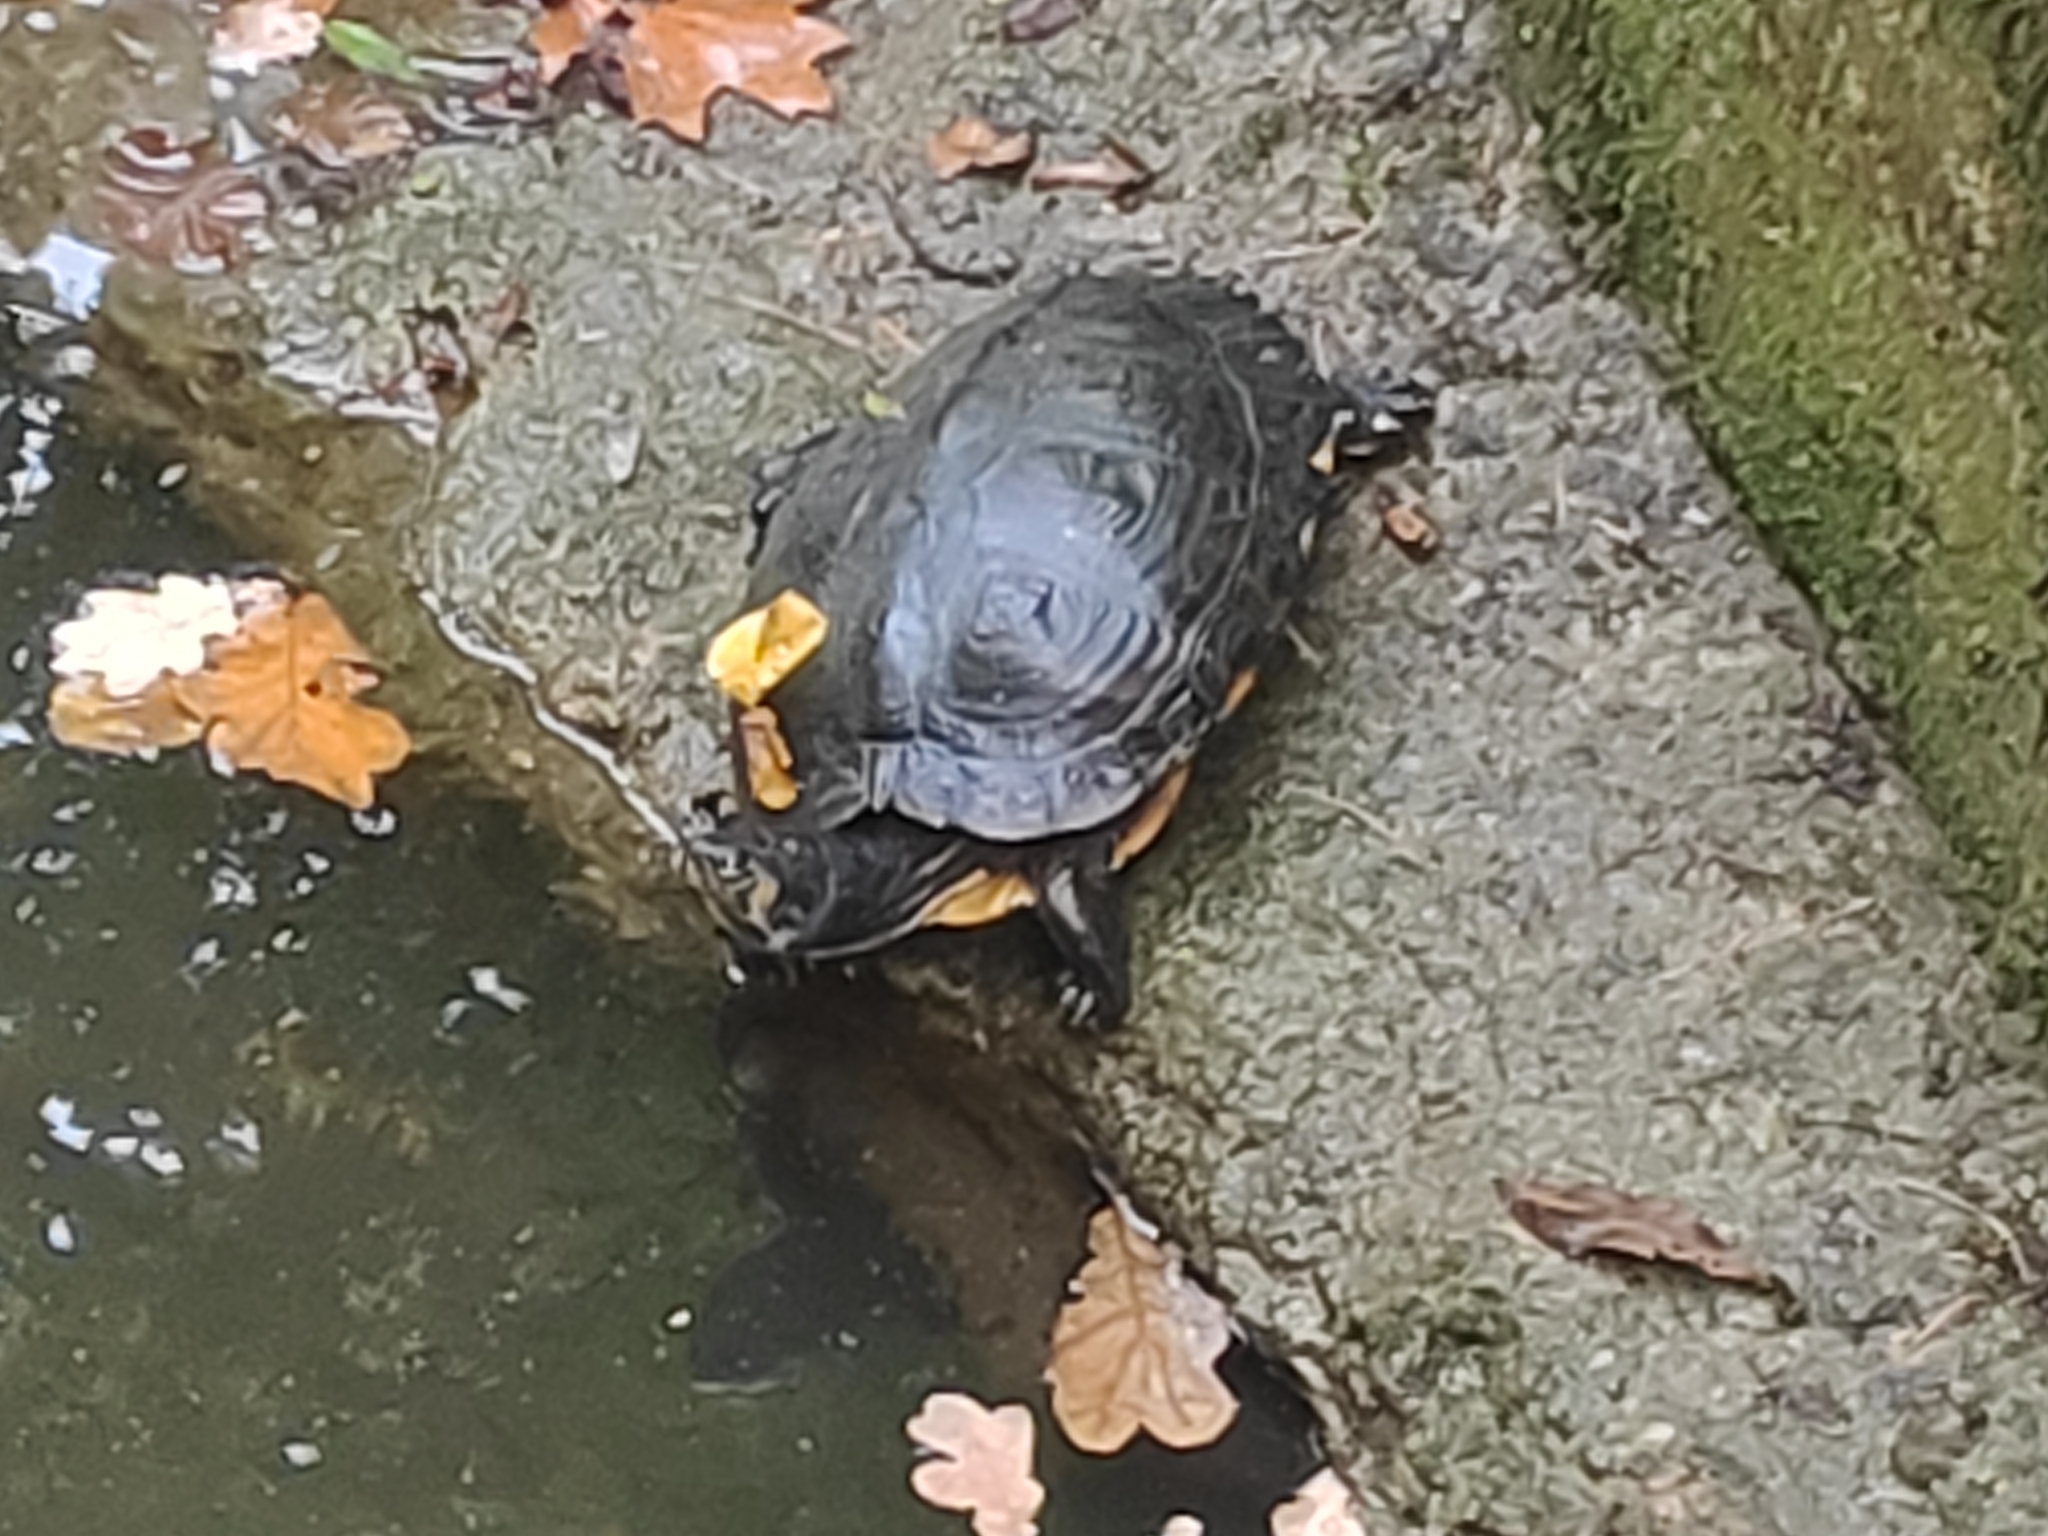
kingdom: Animalia
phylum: Chordata
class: Testudines
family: Emydidae
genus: Trachemys
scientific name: Trachemys scripta
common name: Slider
